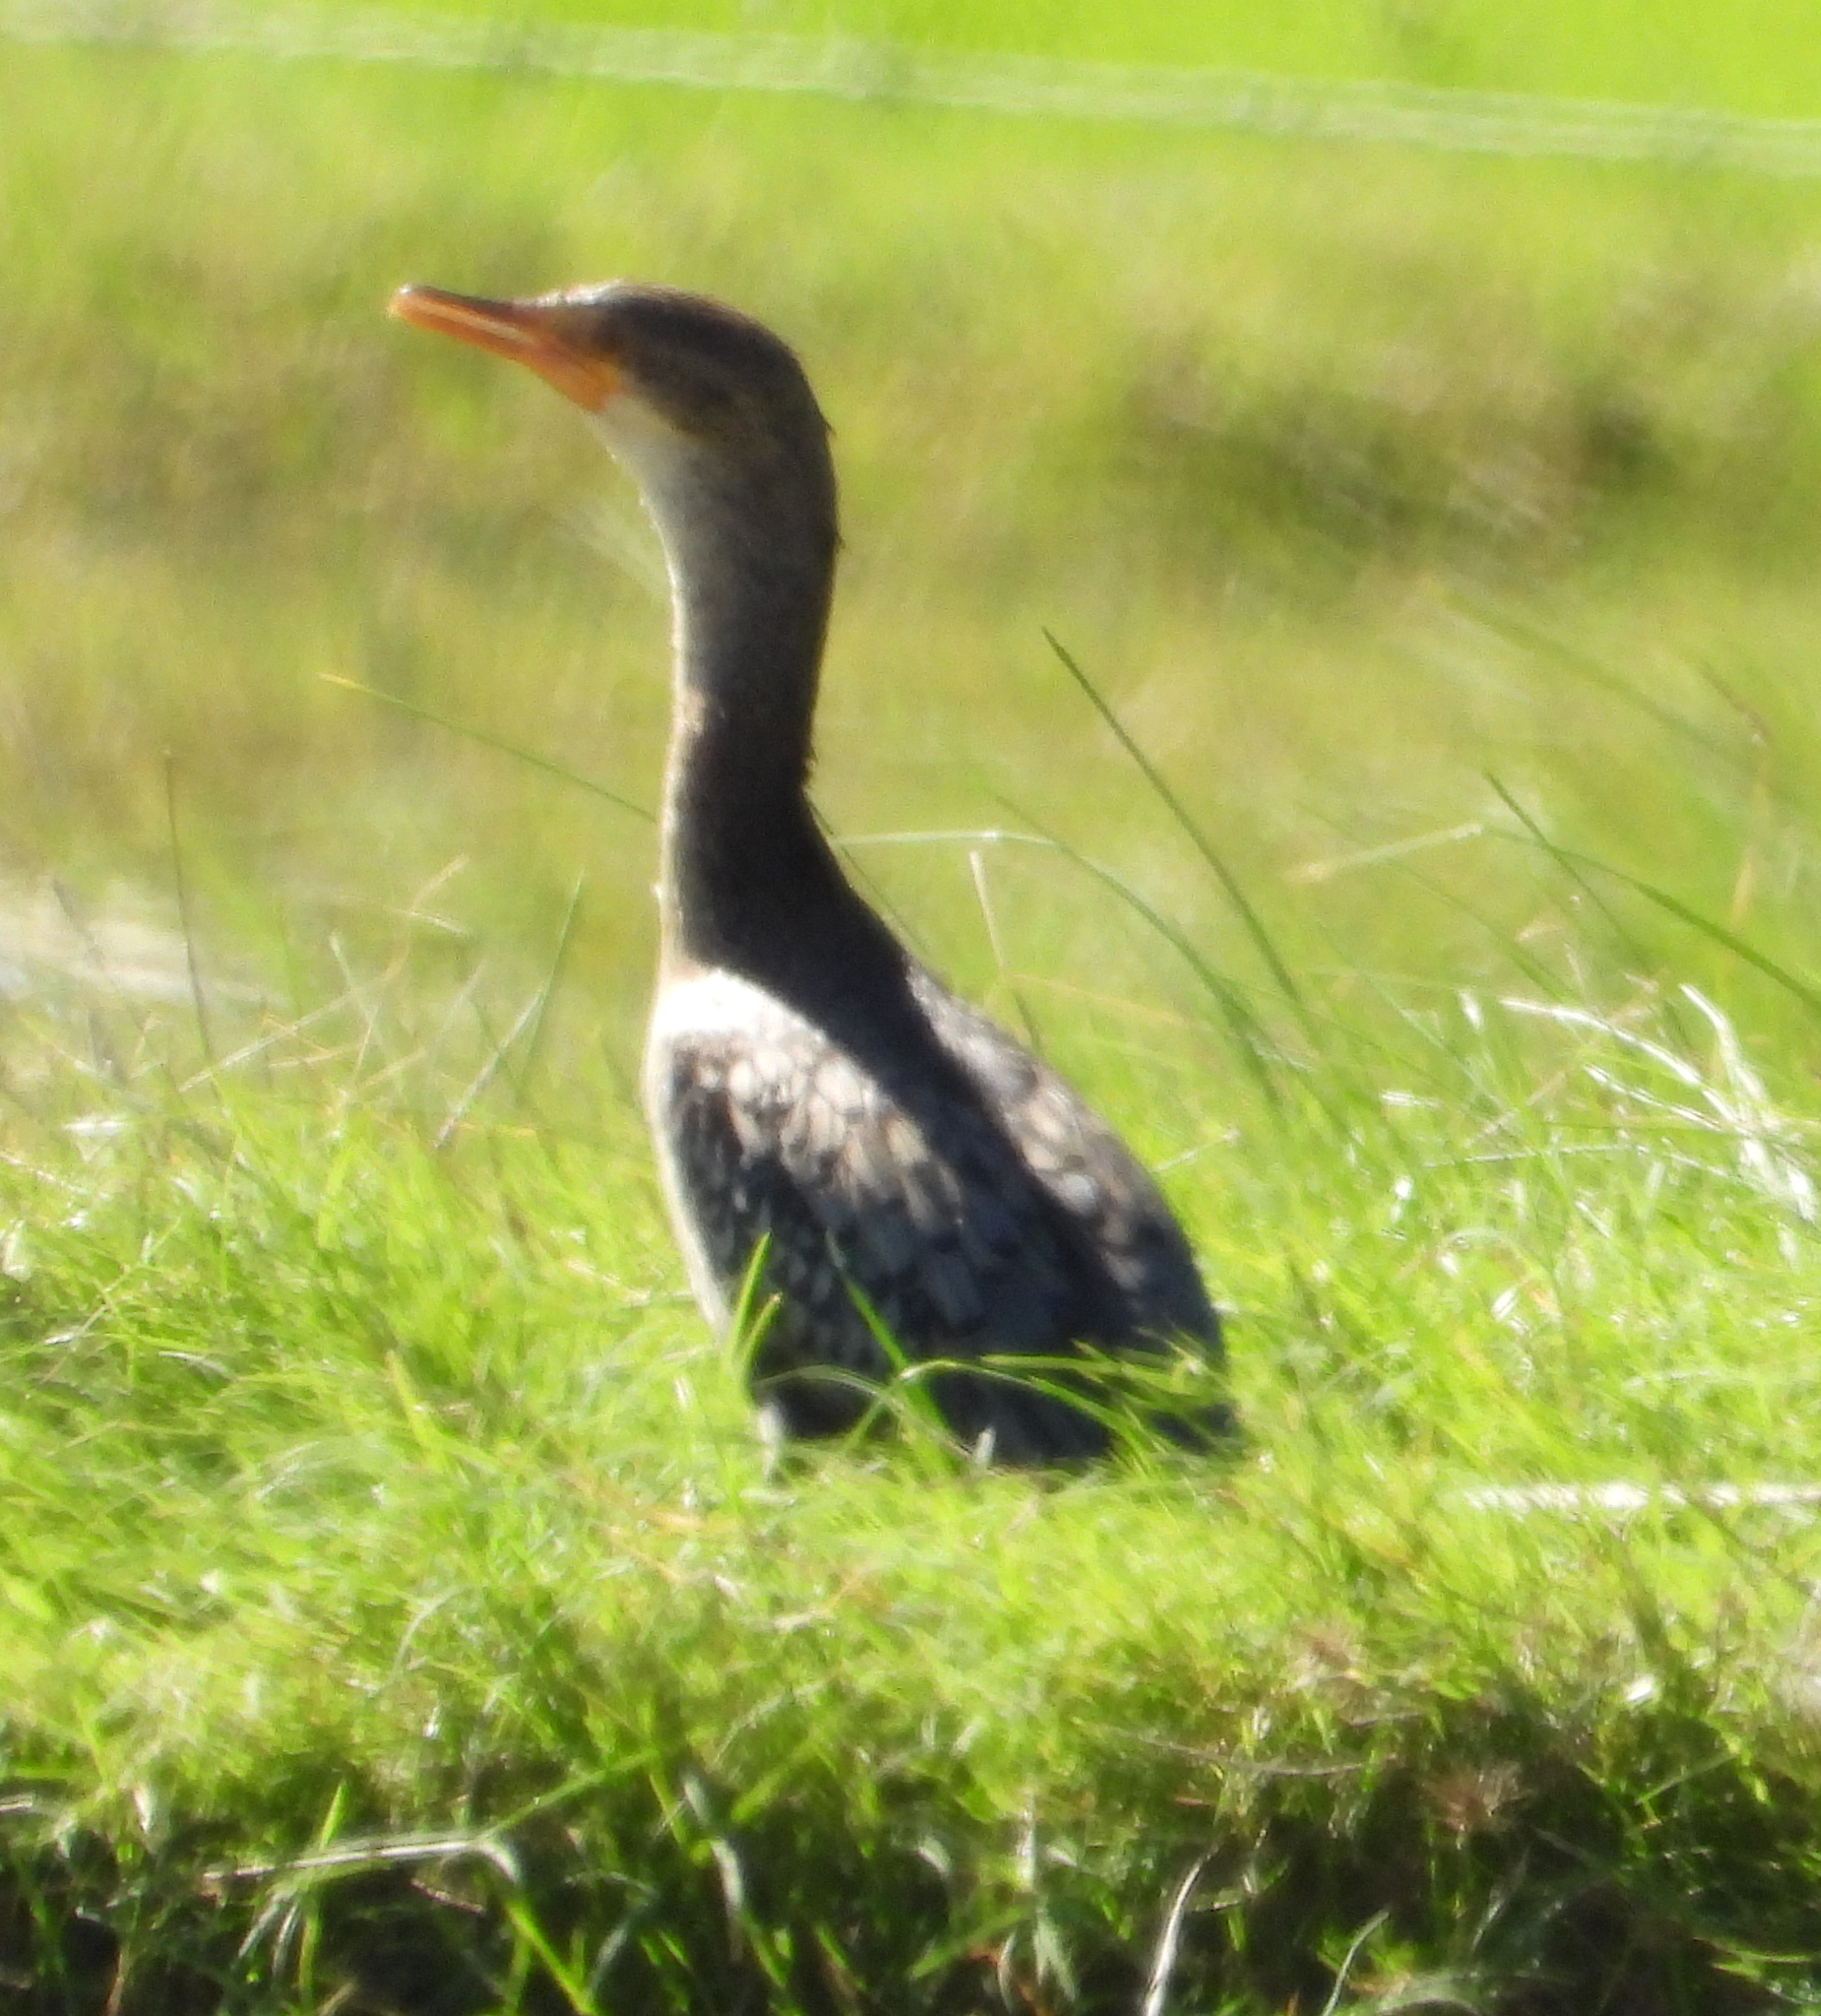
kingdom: Animalia
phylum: Chordata
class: Aves
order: Suliformes
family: Phalacrocoracidae
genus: Microcarbo
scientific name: Microcarbo africanus
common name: Long-tailed cormorant
